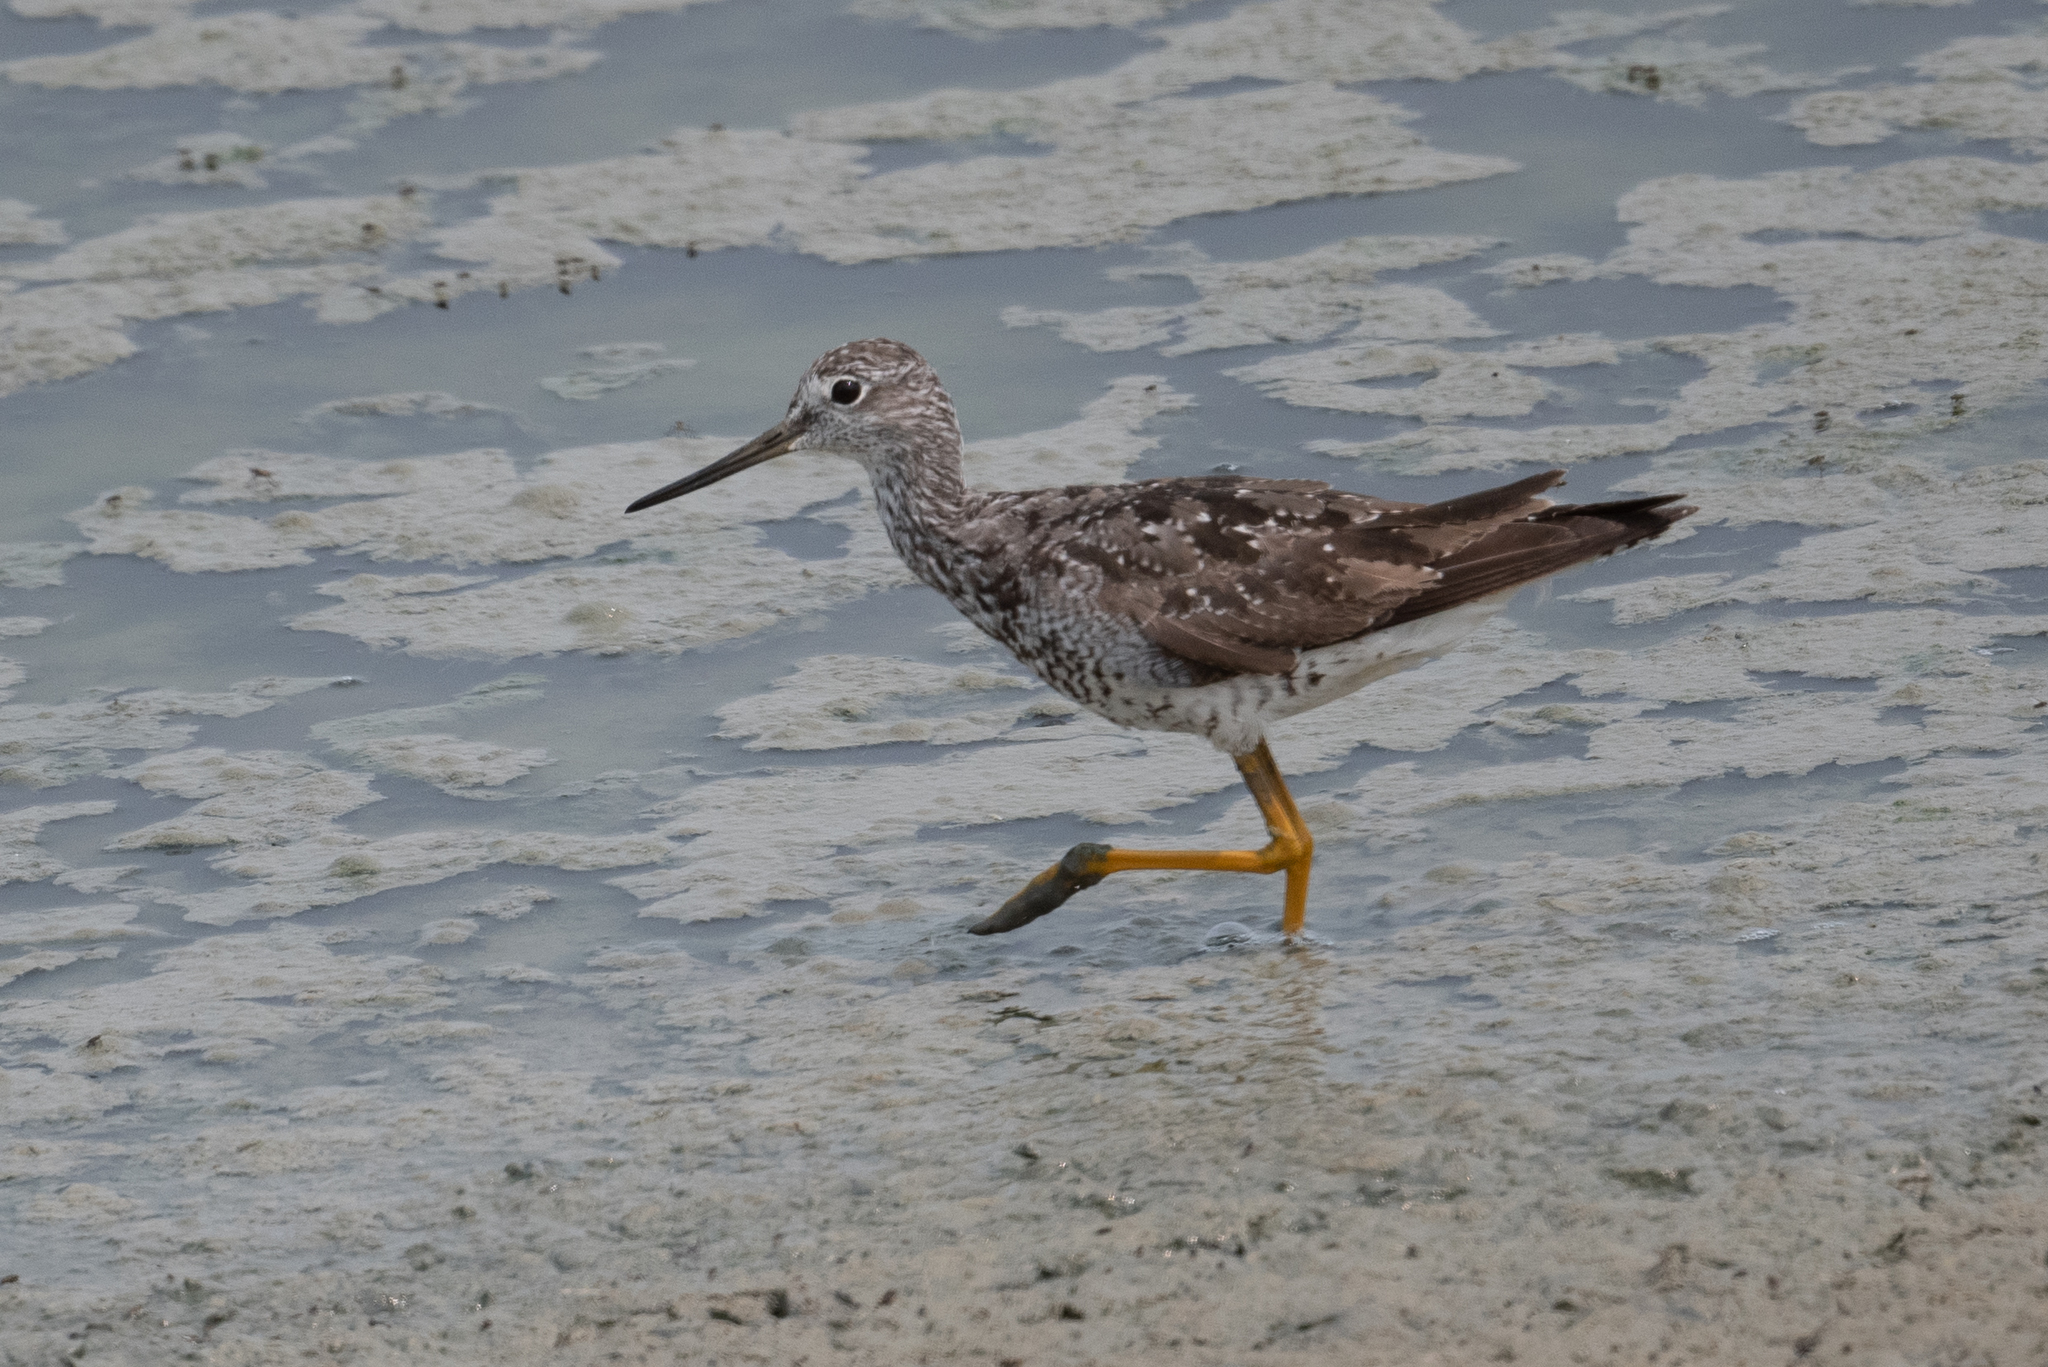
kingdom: Animalia
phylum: Chordata
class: Aves
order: Charadriiformes
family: Scolopacidae
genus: Tringa
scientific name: Tringa melanoleuca
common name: Greater yellowlegs
